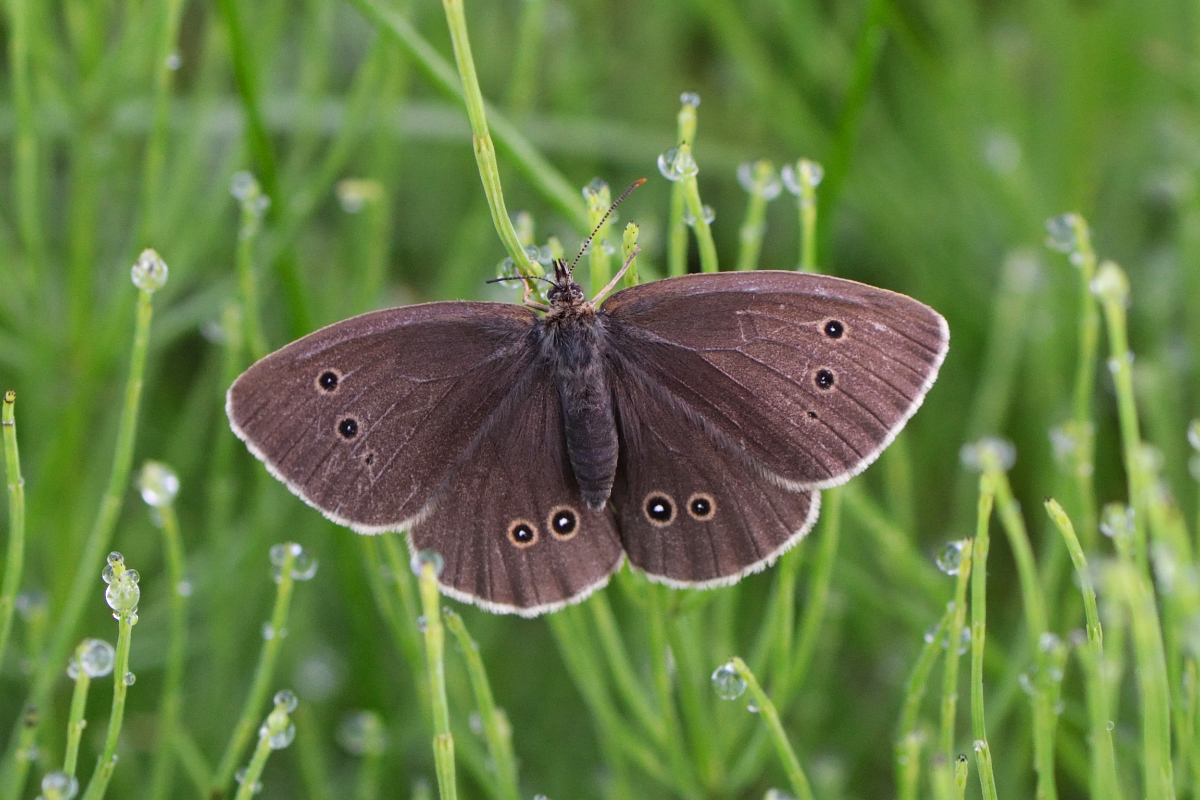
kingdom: Animalia
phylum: Arthropoda
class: Insecta
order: Lepidoptera
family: Nymphalidae
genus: Aphantopus
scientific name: Aphantopus hyperantus
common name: Ringlet
